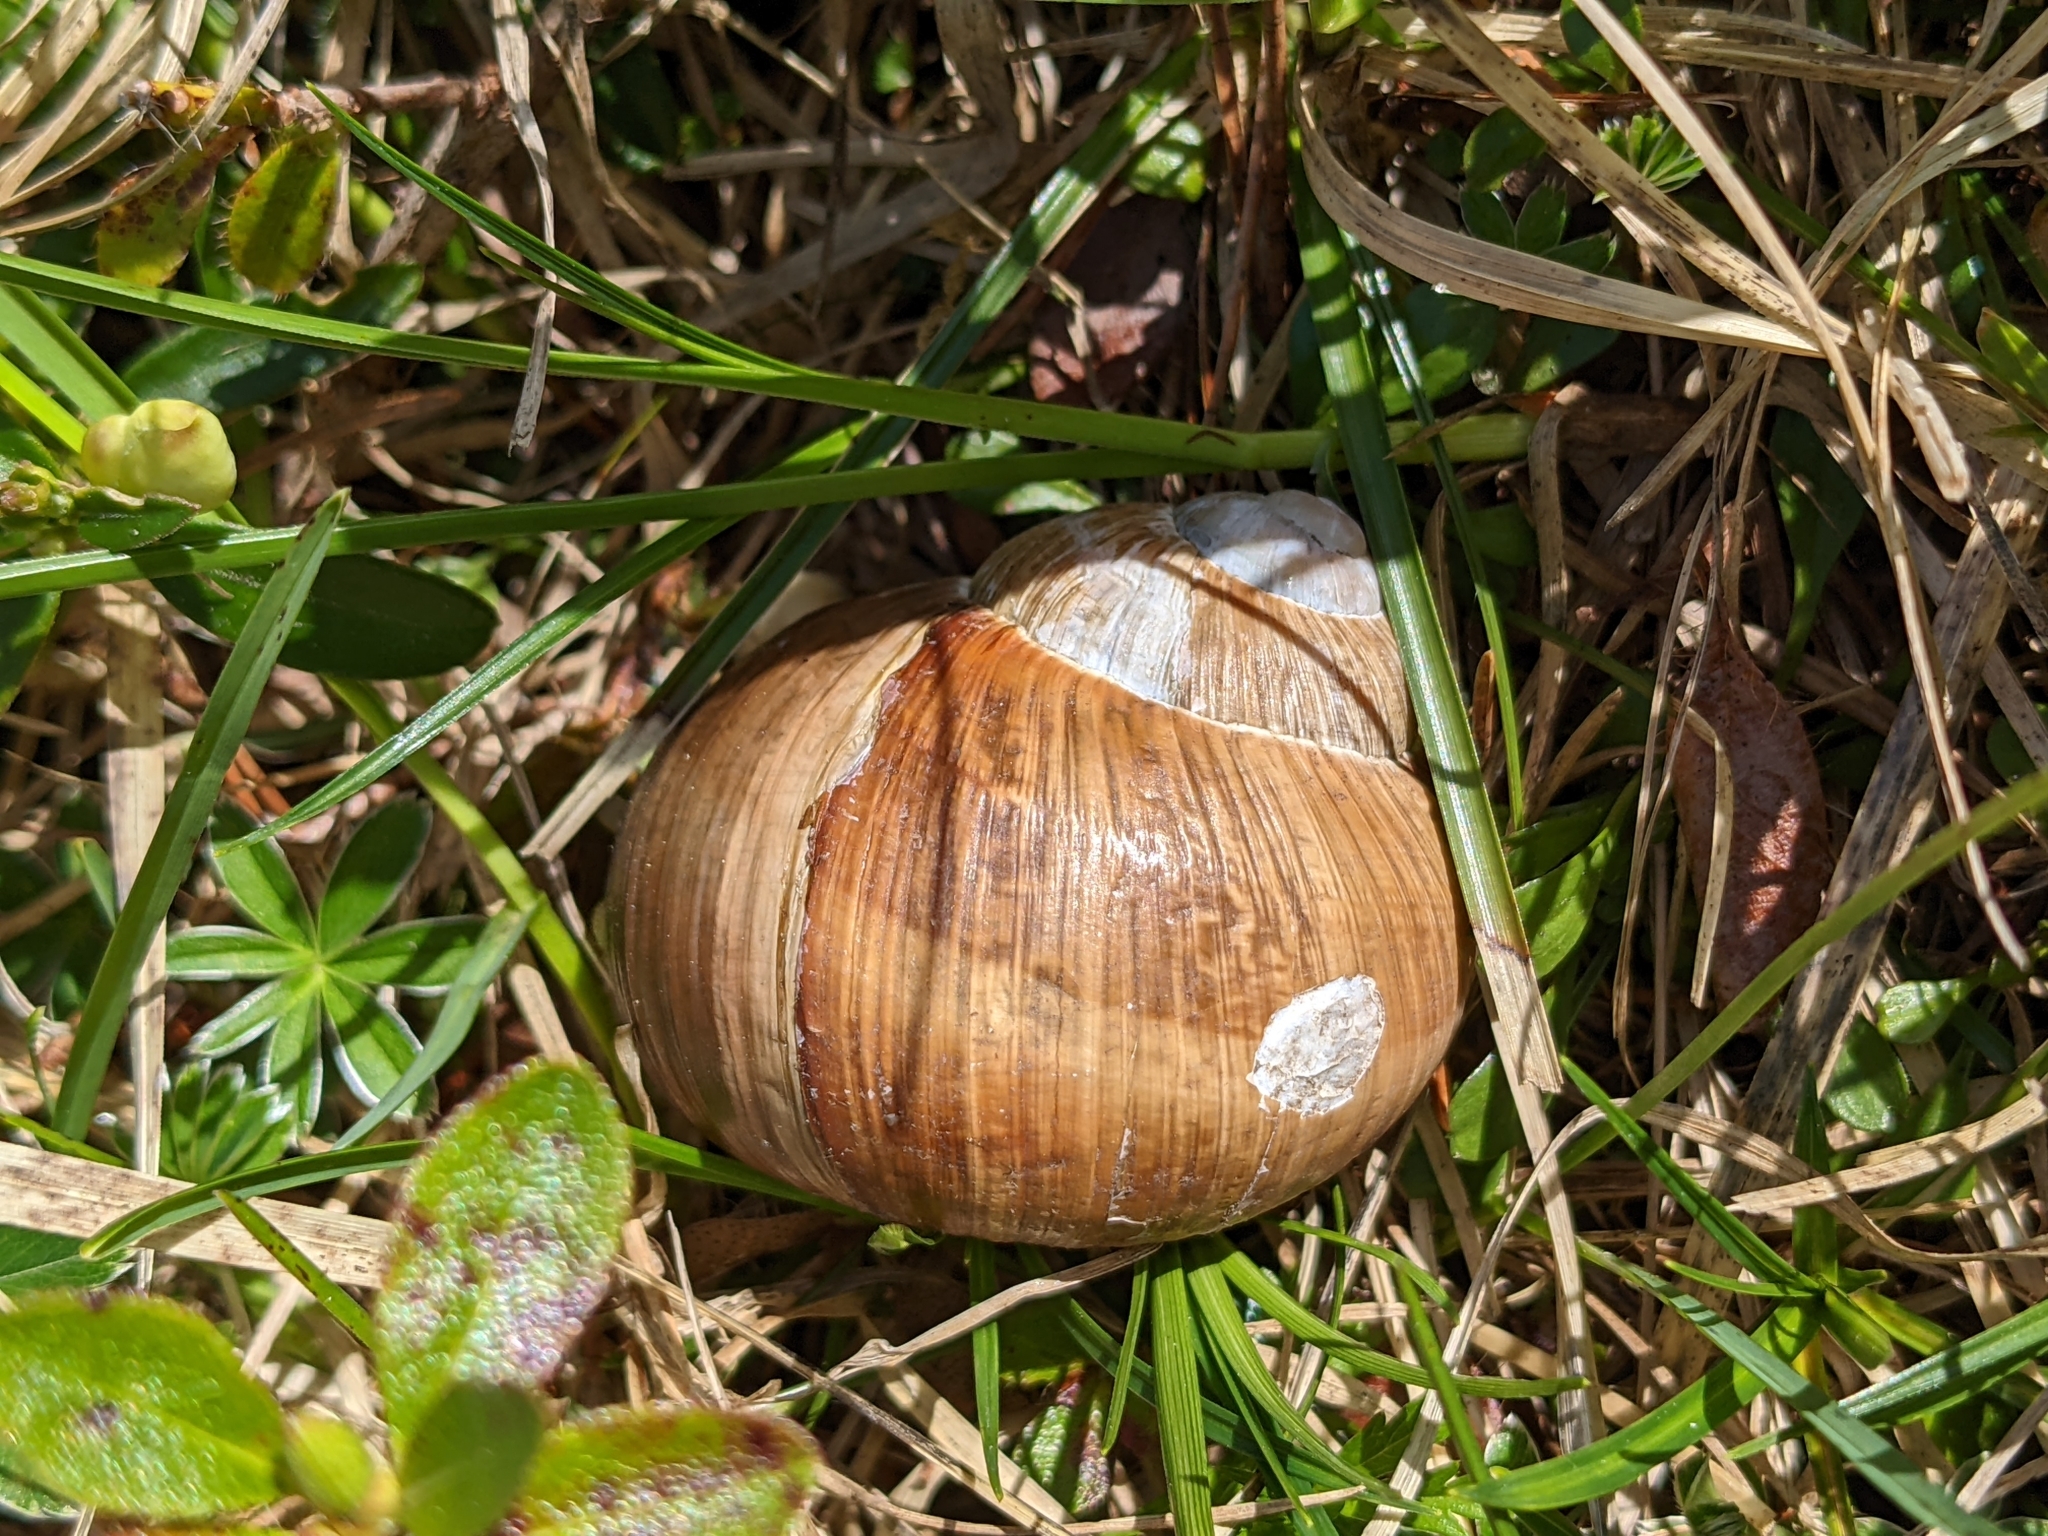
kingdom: Animalia
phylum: Mollusca
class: Gastropoda
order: Stylommatophora
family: Helicidae
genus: Helix
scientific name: Helix pomatia
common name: Roman snail
